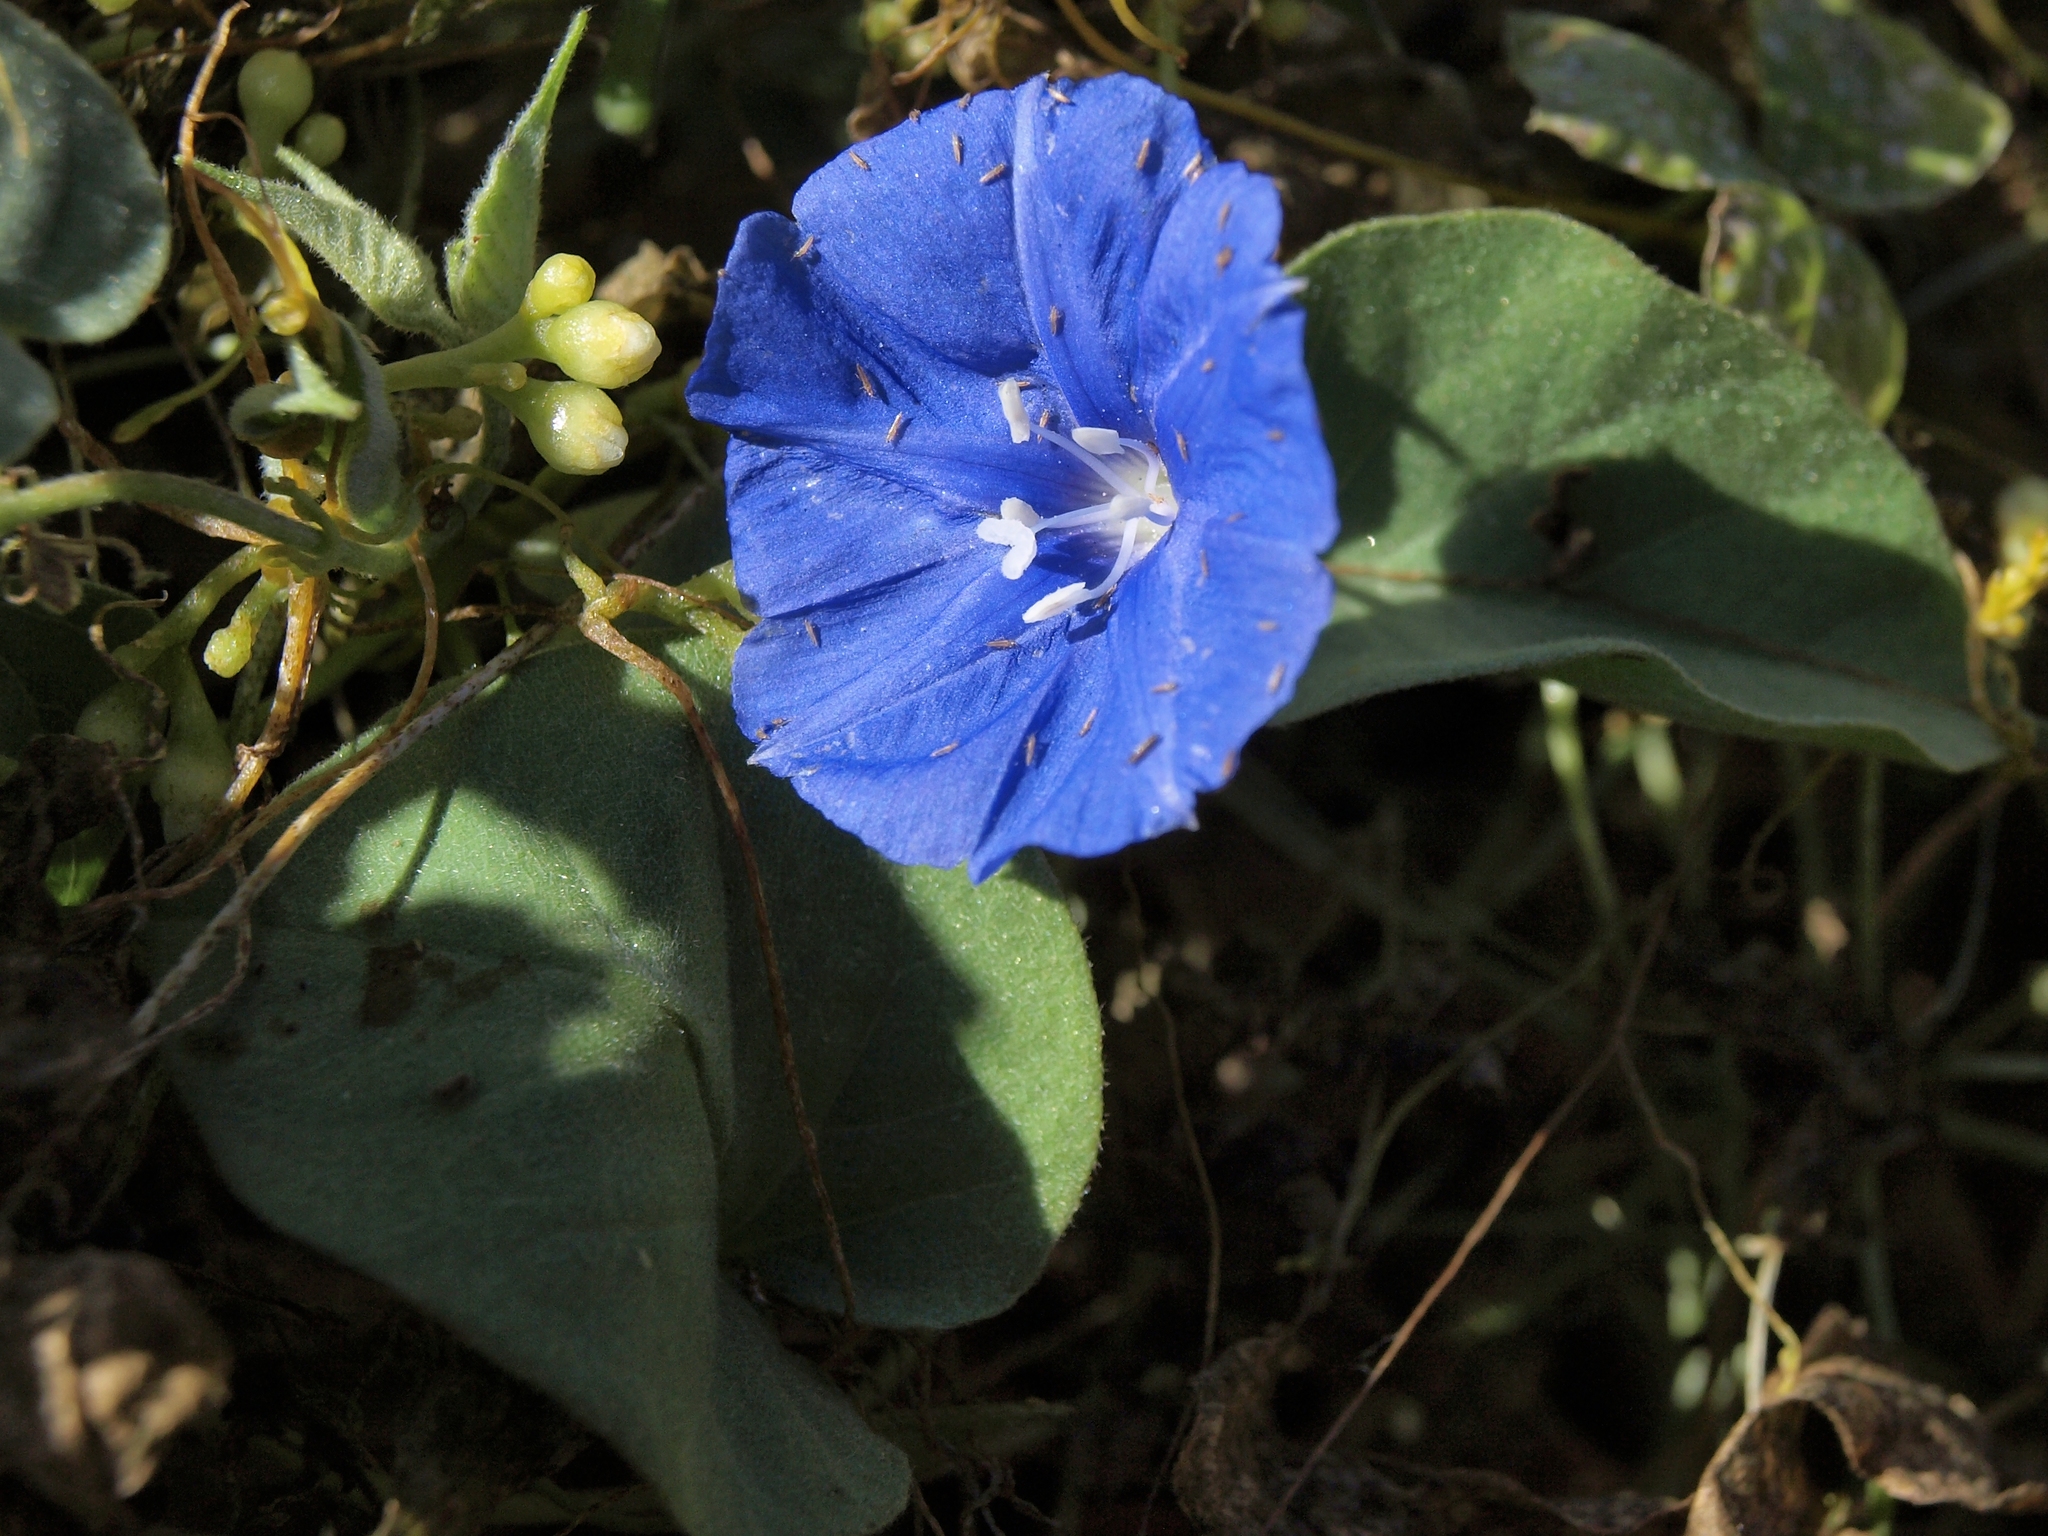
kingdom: Plantae
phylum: Tracheophyta
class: Magnoliopsida
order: Solanales
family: Convolvulaceae
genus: Jacquemontia
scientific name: Jacquemontia abutiloides
